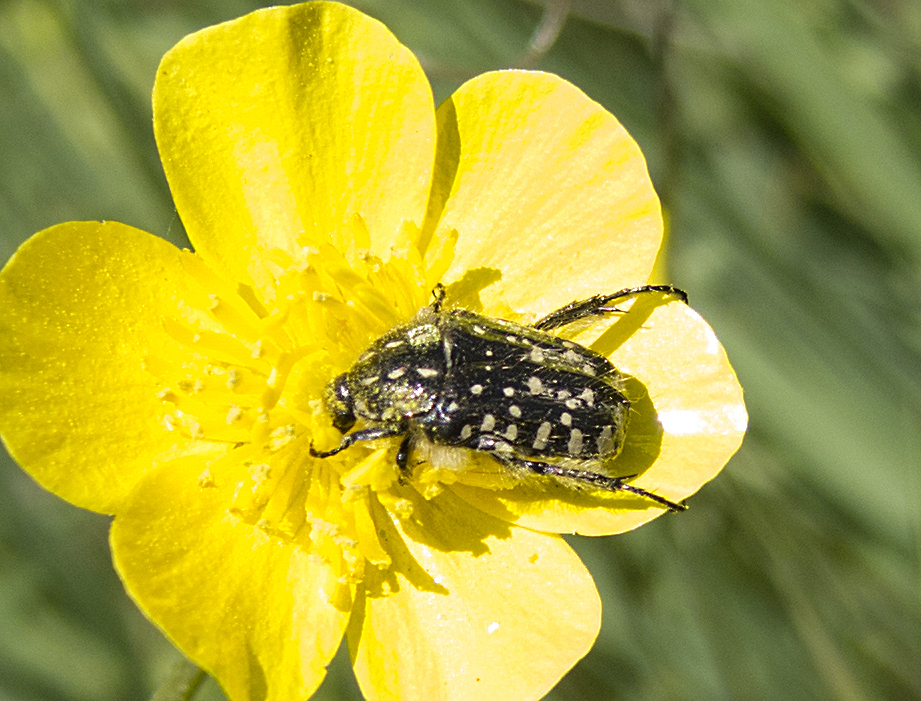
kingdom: Animalia
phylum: Arthropoda
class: Insecta
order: Coleoptera
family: Scarabaeidae
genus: Oxythyrea
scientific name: Oxythyrea funesta
